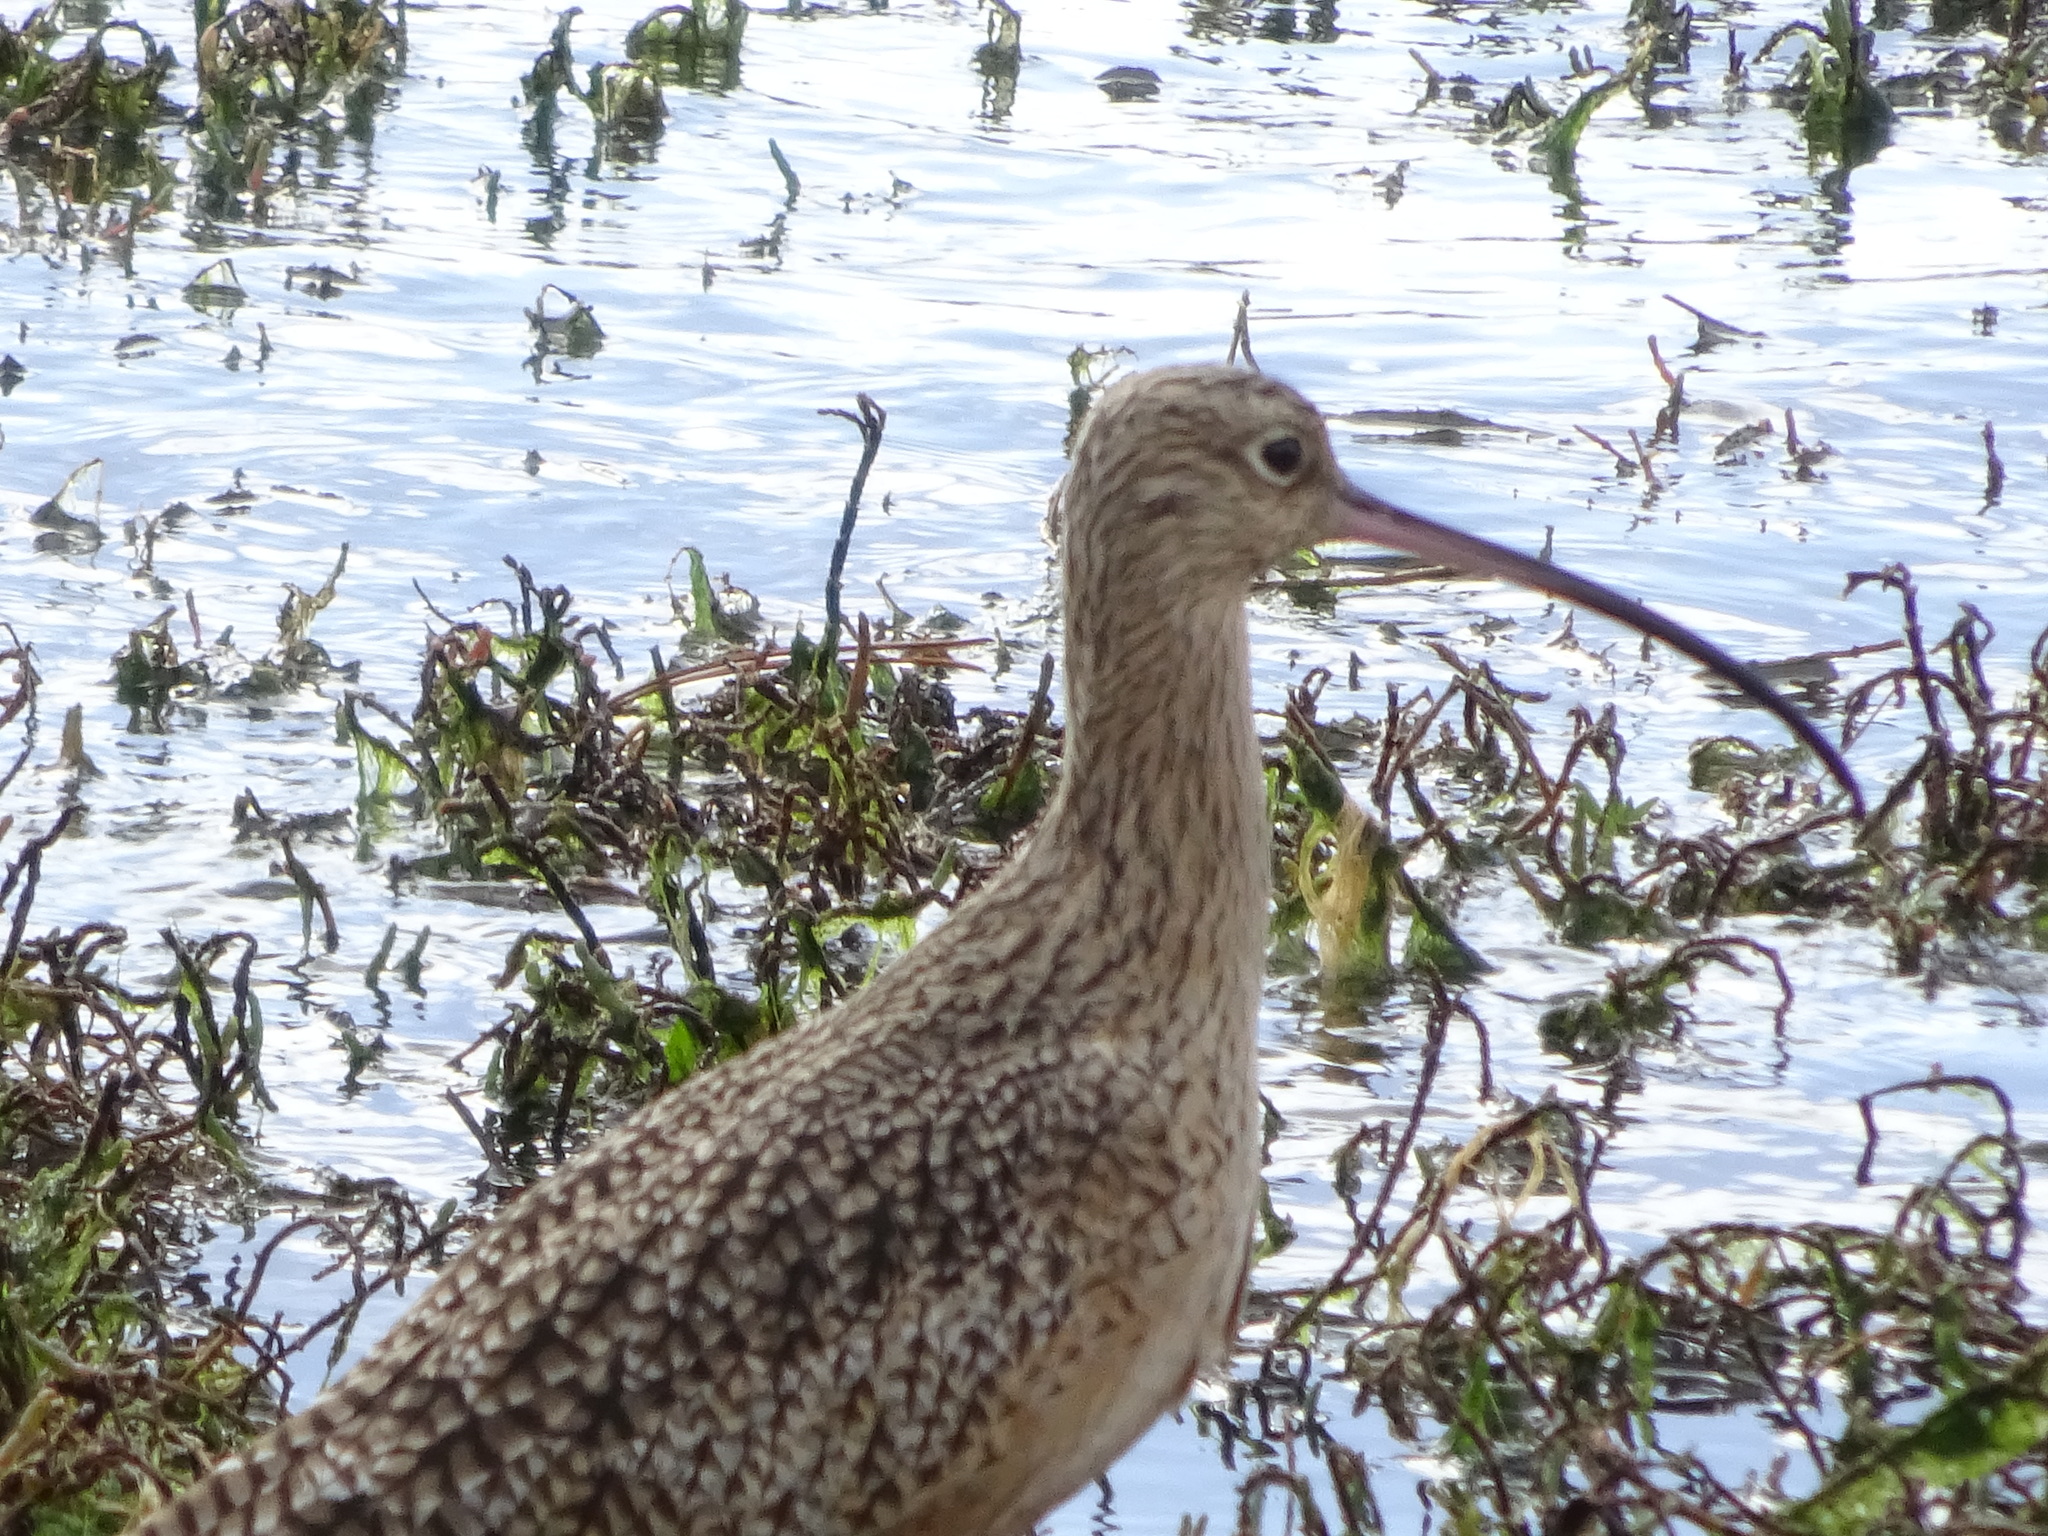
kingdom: Animalia
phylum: Chordata
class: Aves
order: Charadriiformes
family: Scolopacidae
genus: Numenius
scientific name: Numenius americanus
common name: Long-billed curlew
